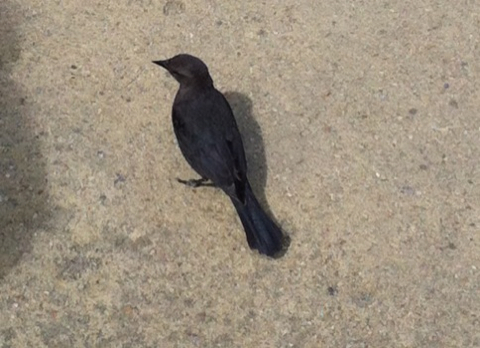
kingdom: Animalia
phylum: Chordata
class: Aves
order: Passeriformes
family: Icteridae
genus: Euphagus
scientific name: Euphagus cyanocephalus
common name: Brewer's blackbird
